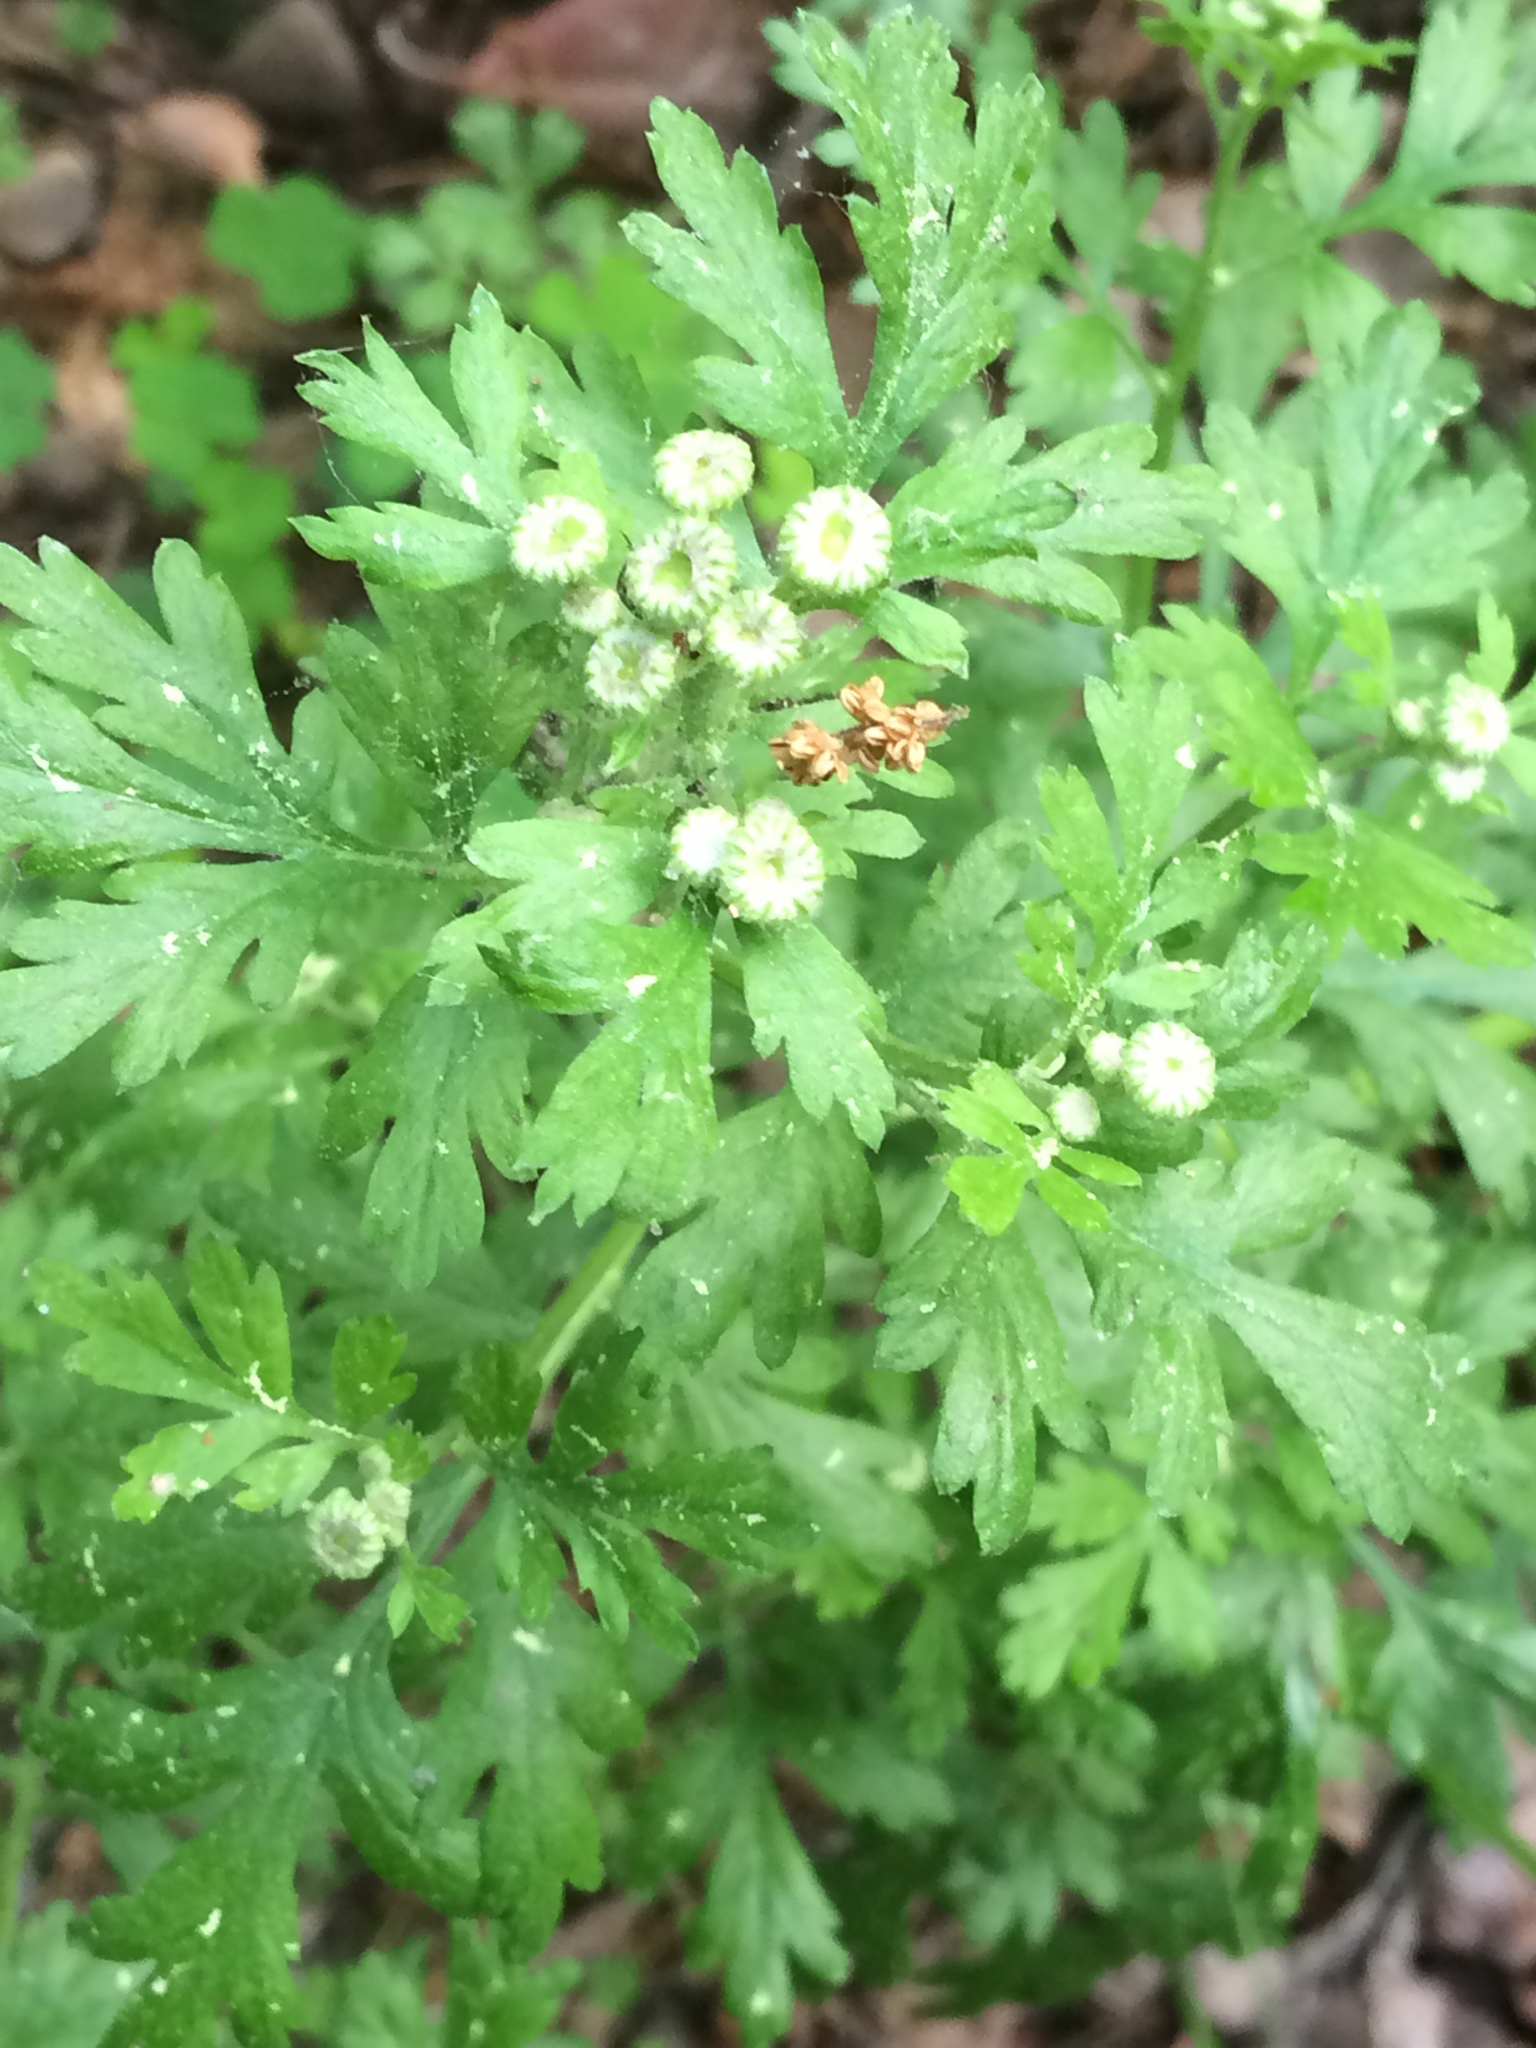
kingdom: Plantae
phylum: Tracheophyta
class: Magnoliopsida
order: Asterales
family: Asteraceae
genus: Tanacetum
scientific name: Tanacetum parthenium
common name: Feverfew
